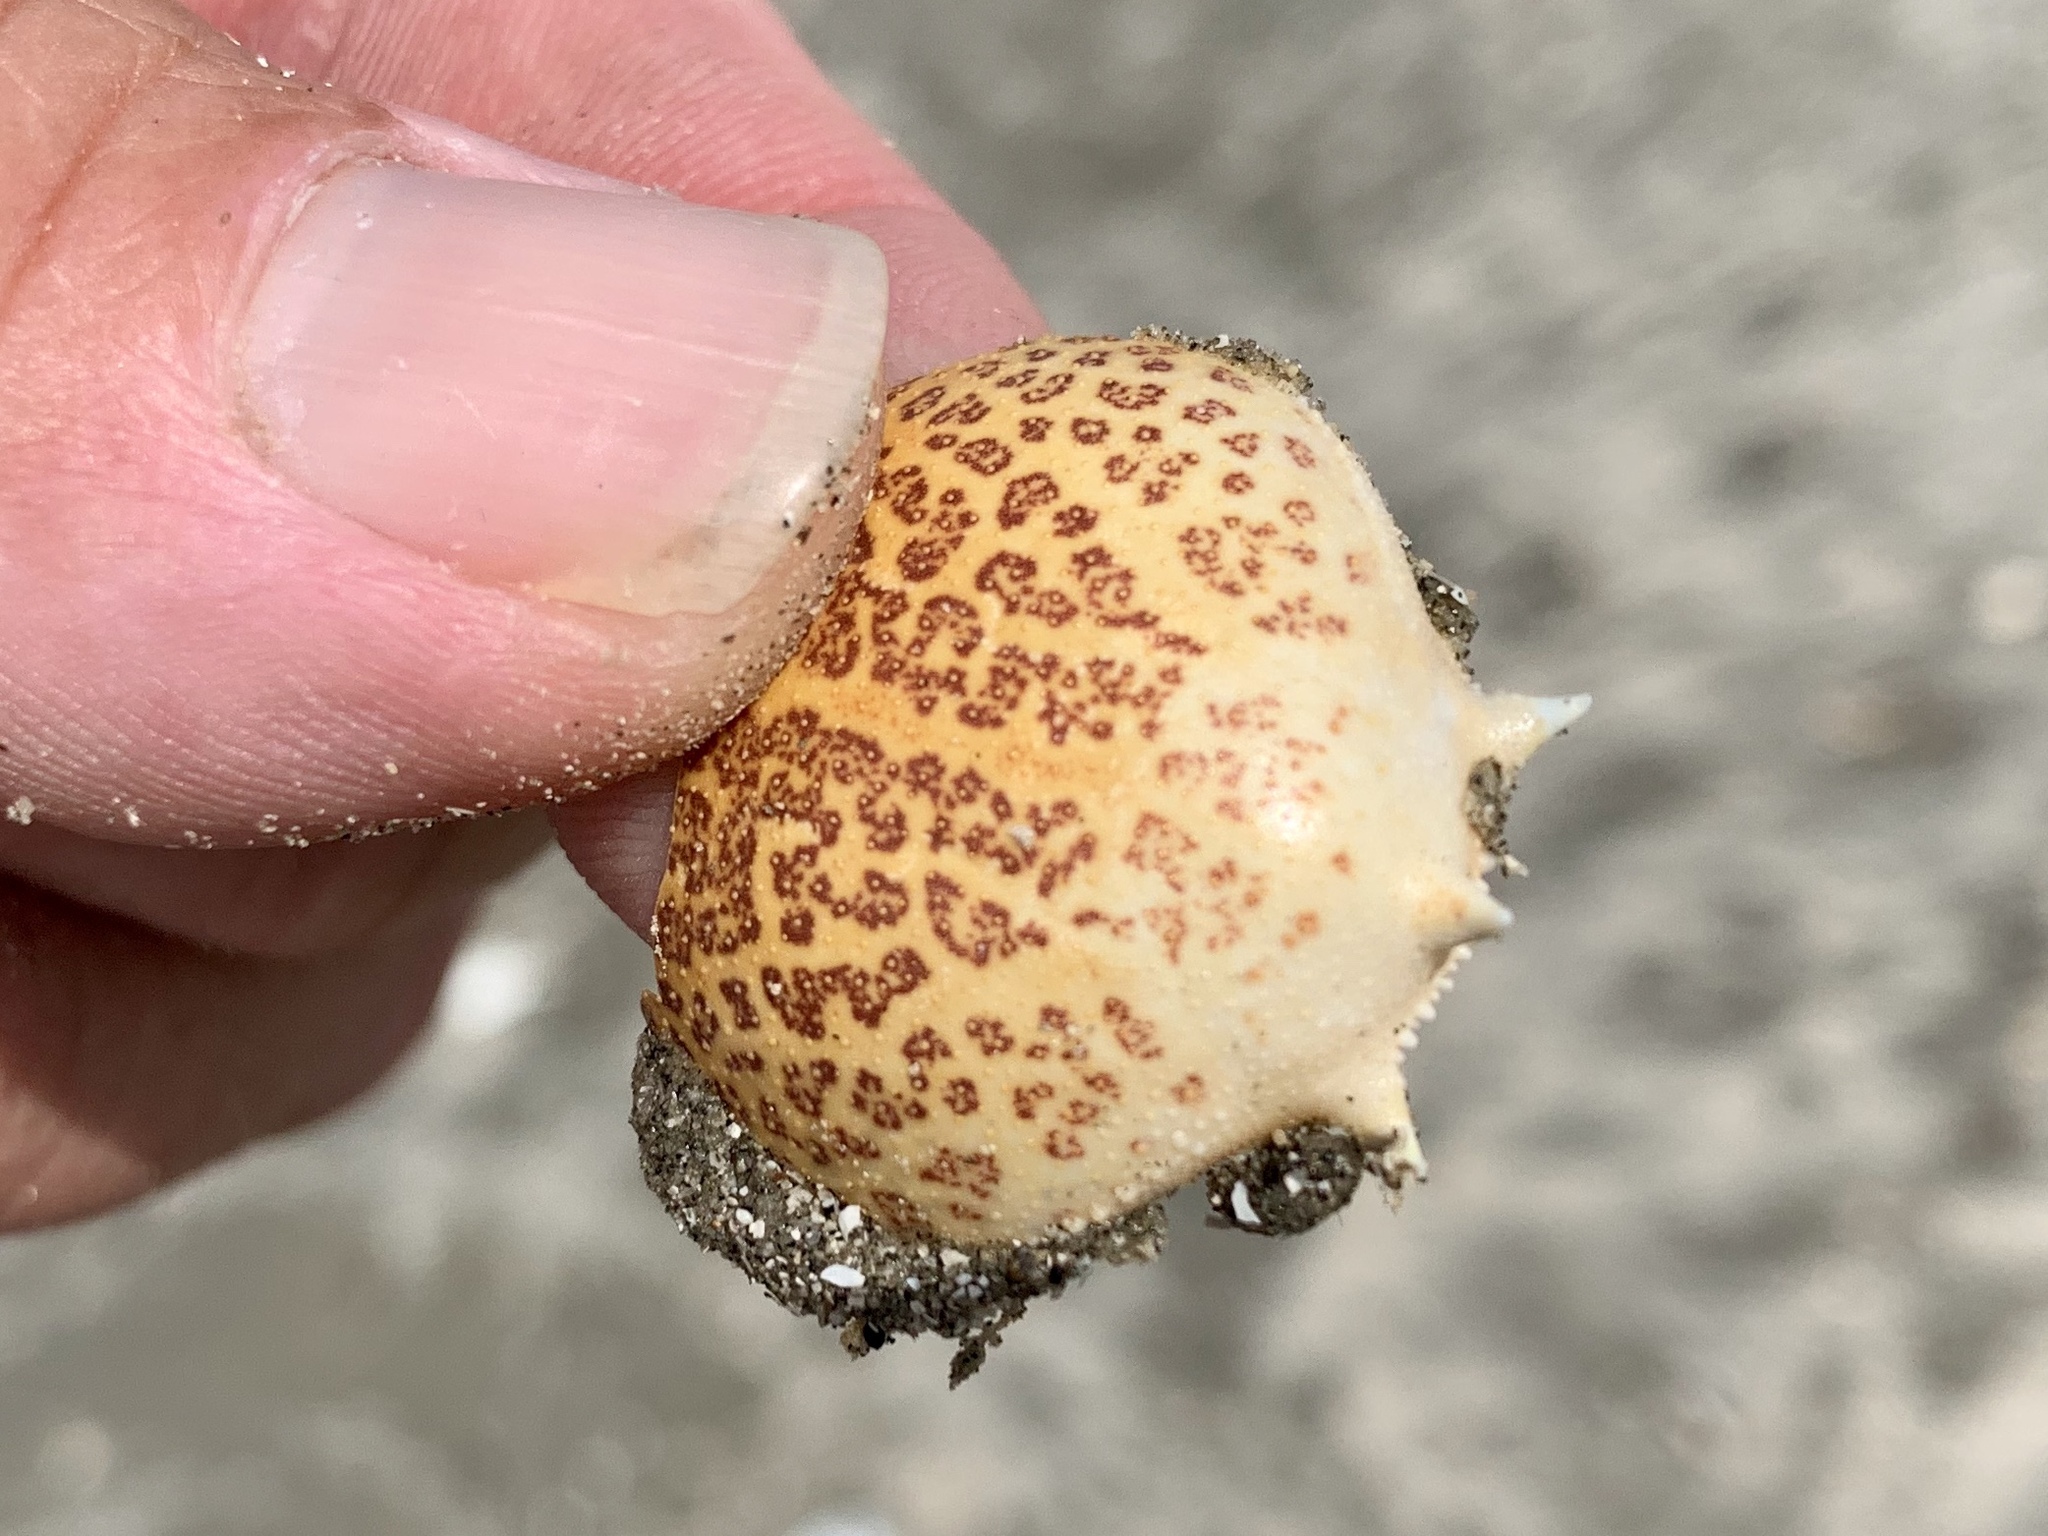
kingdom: Animalia
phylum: Arthropoda
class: Malacostraca
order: Decapoda
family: Leucosiidae
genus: Persephona
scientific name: Persephona aquilonaris
